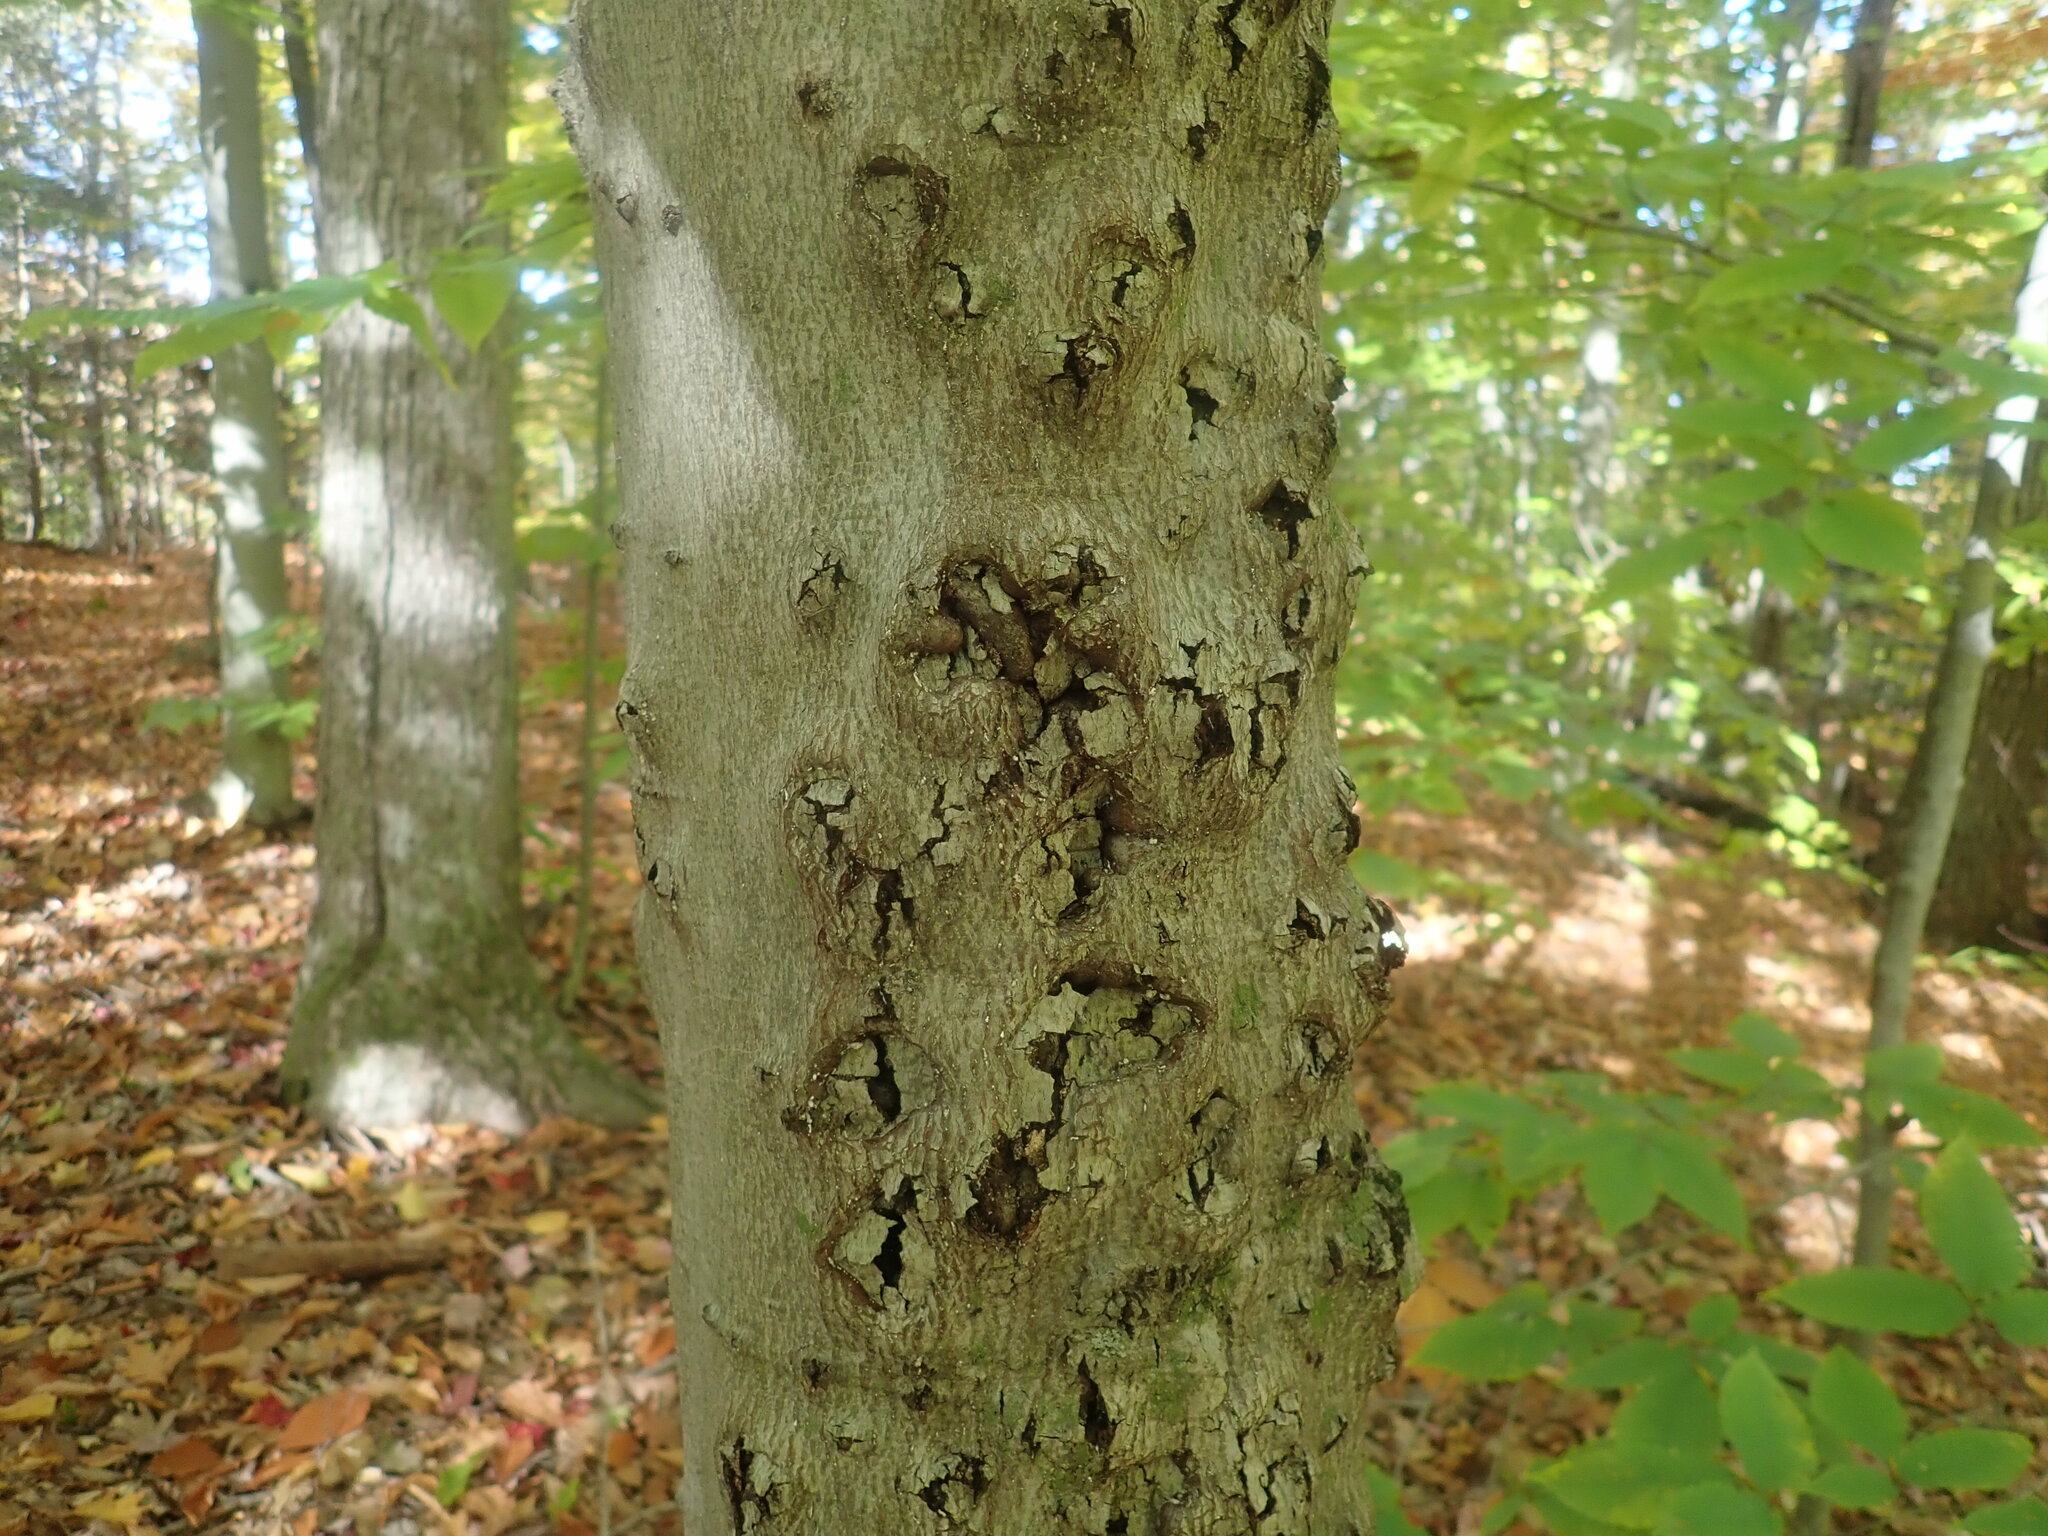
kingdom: Fungi
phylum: Ascomycota
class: Sordariomycetes
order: Hypocreales
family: Nectriaceae
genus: Neonectria
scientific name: Neonectria faginata
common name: Beech bark canker
